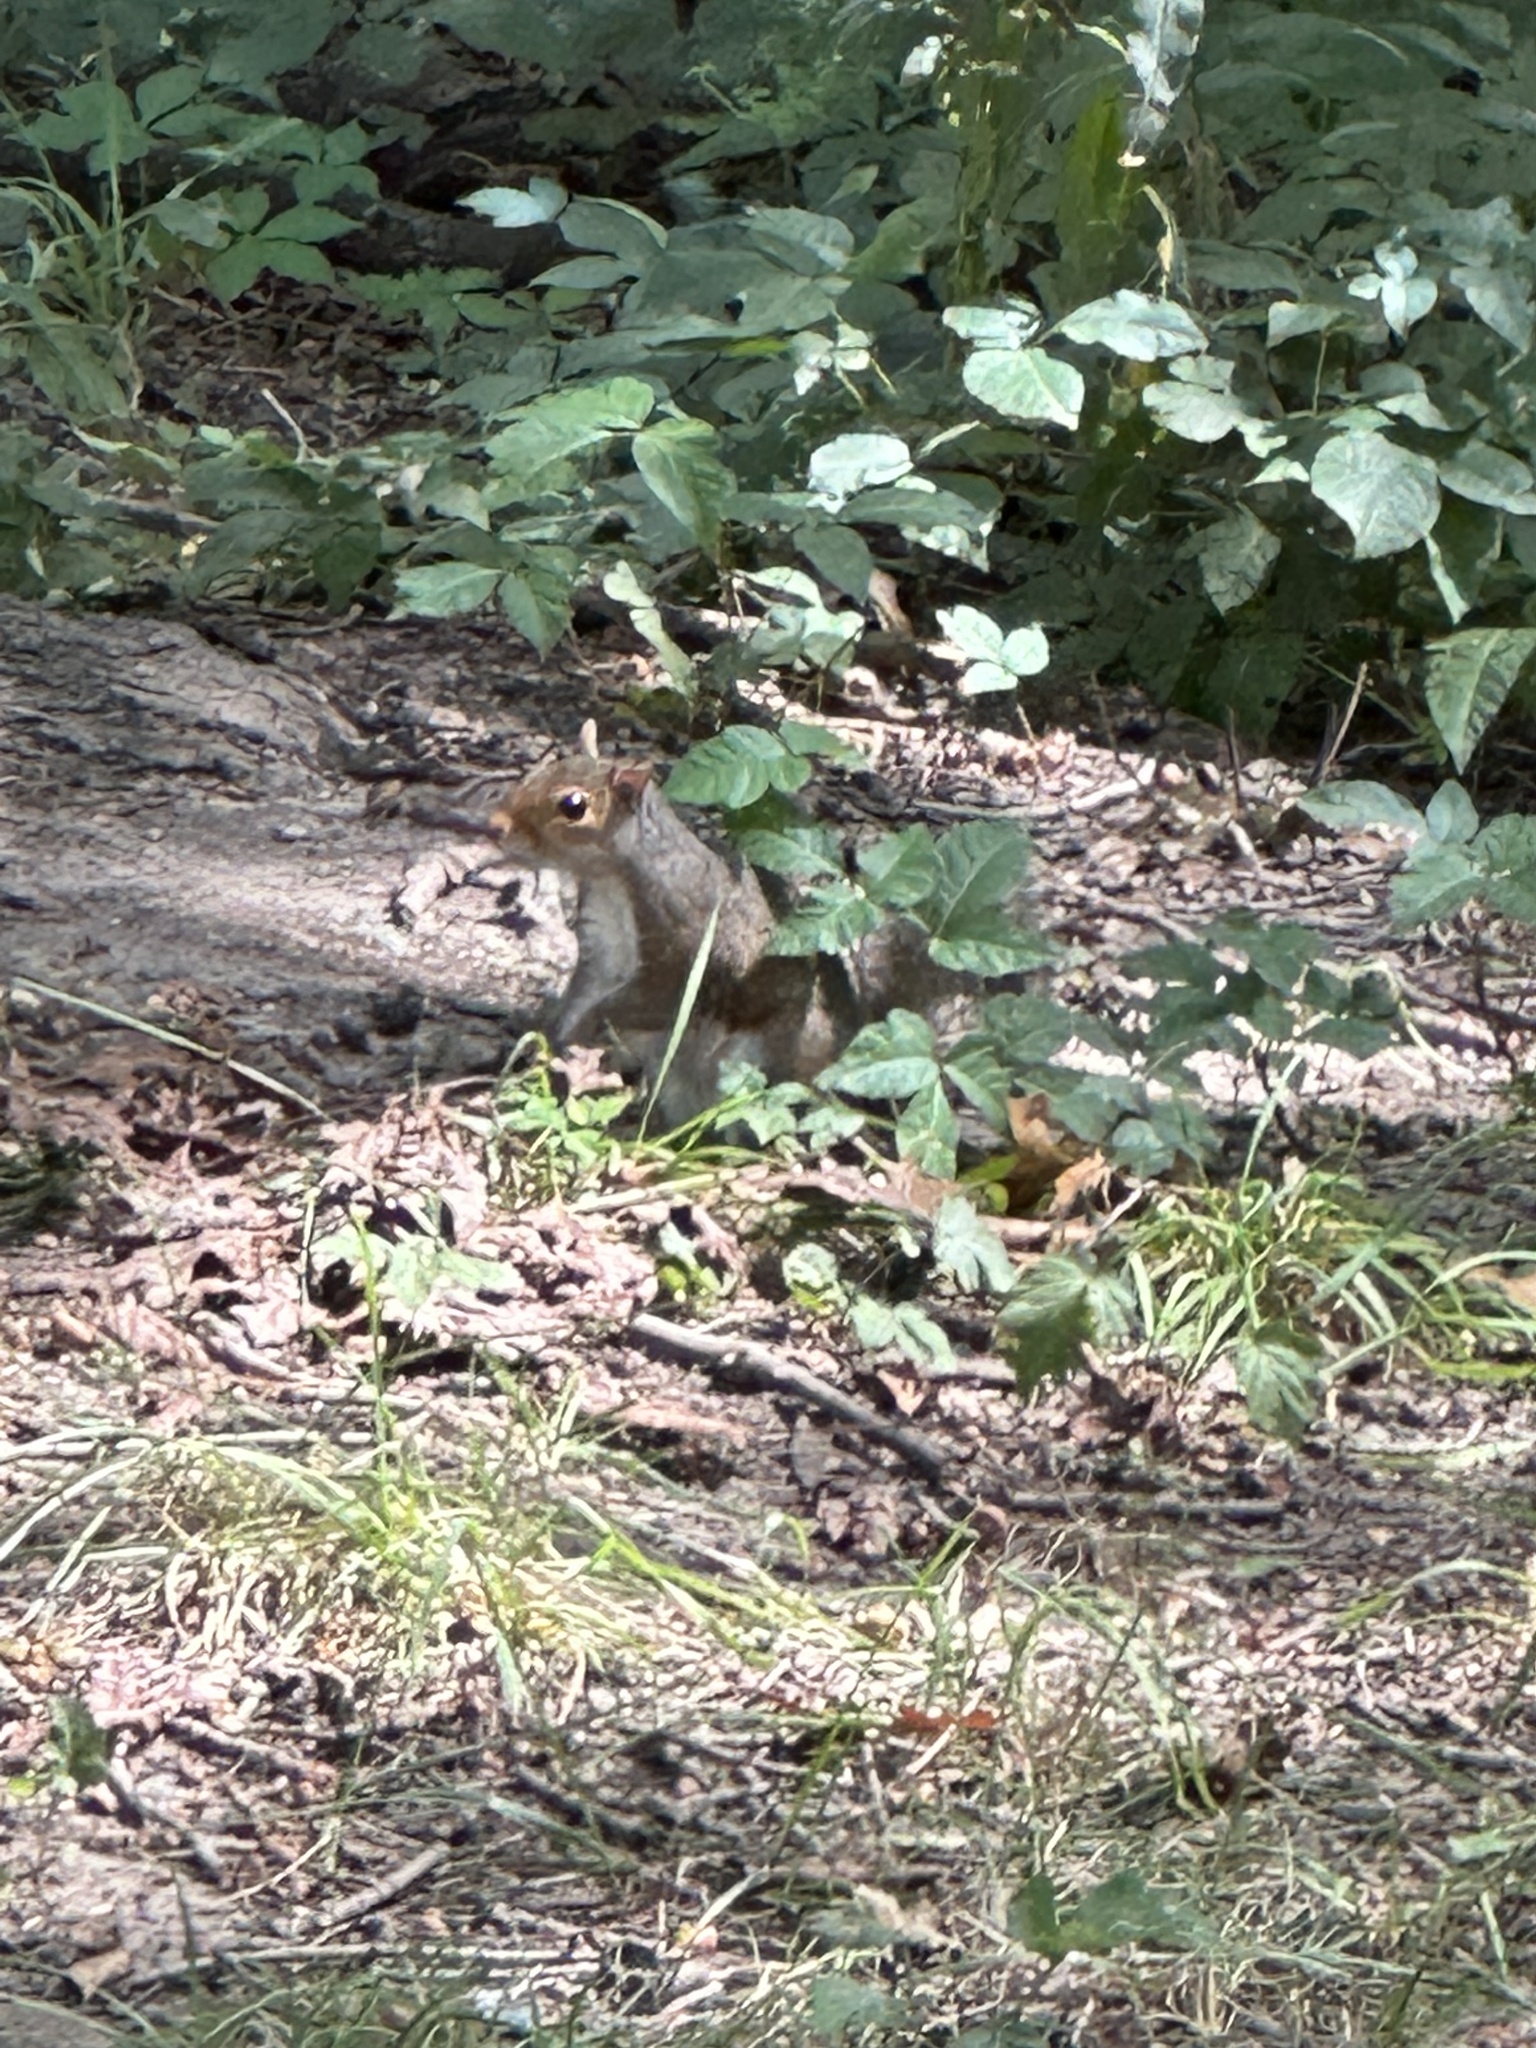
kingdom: Animalia
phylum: Chordata
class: Mammalia
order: Rodentia
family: Sciuridae
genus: Sciurus
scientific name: Sciurus carolinensis
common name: Eastern gray squirrel
